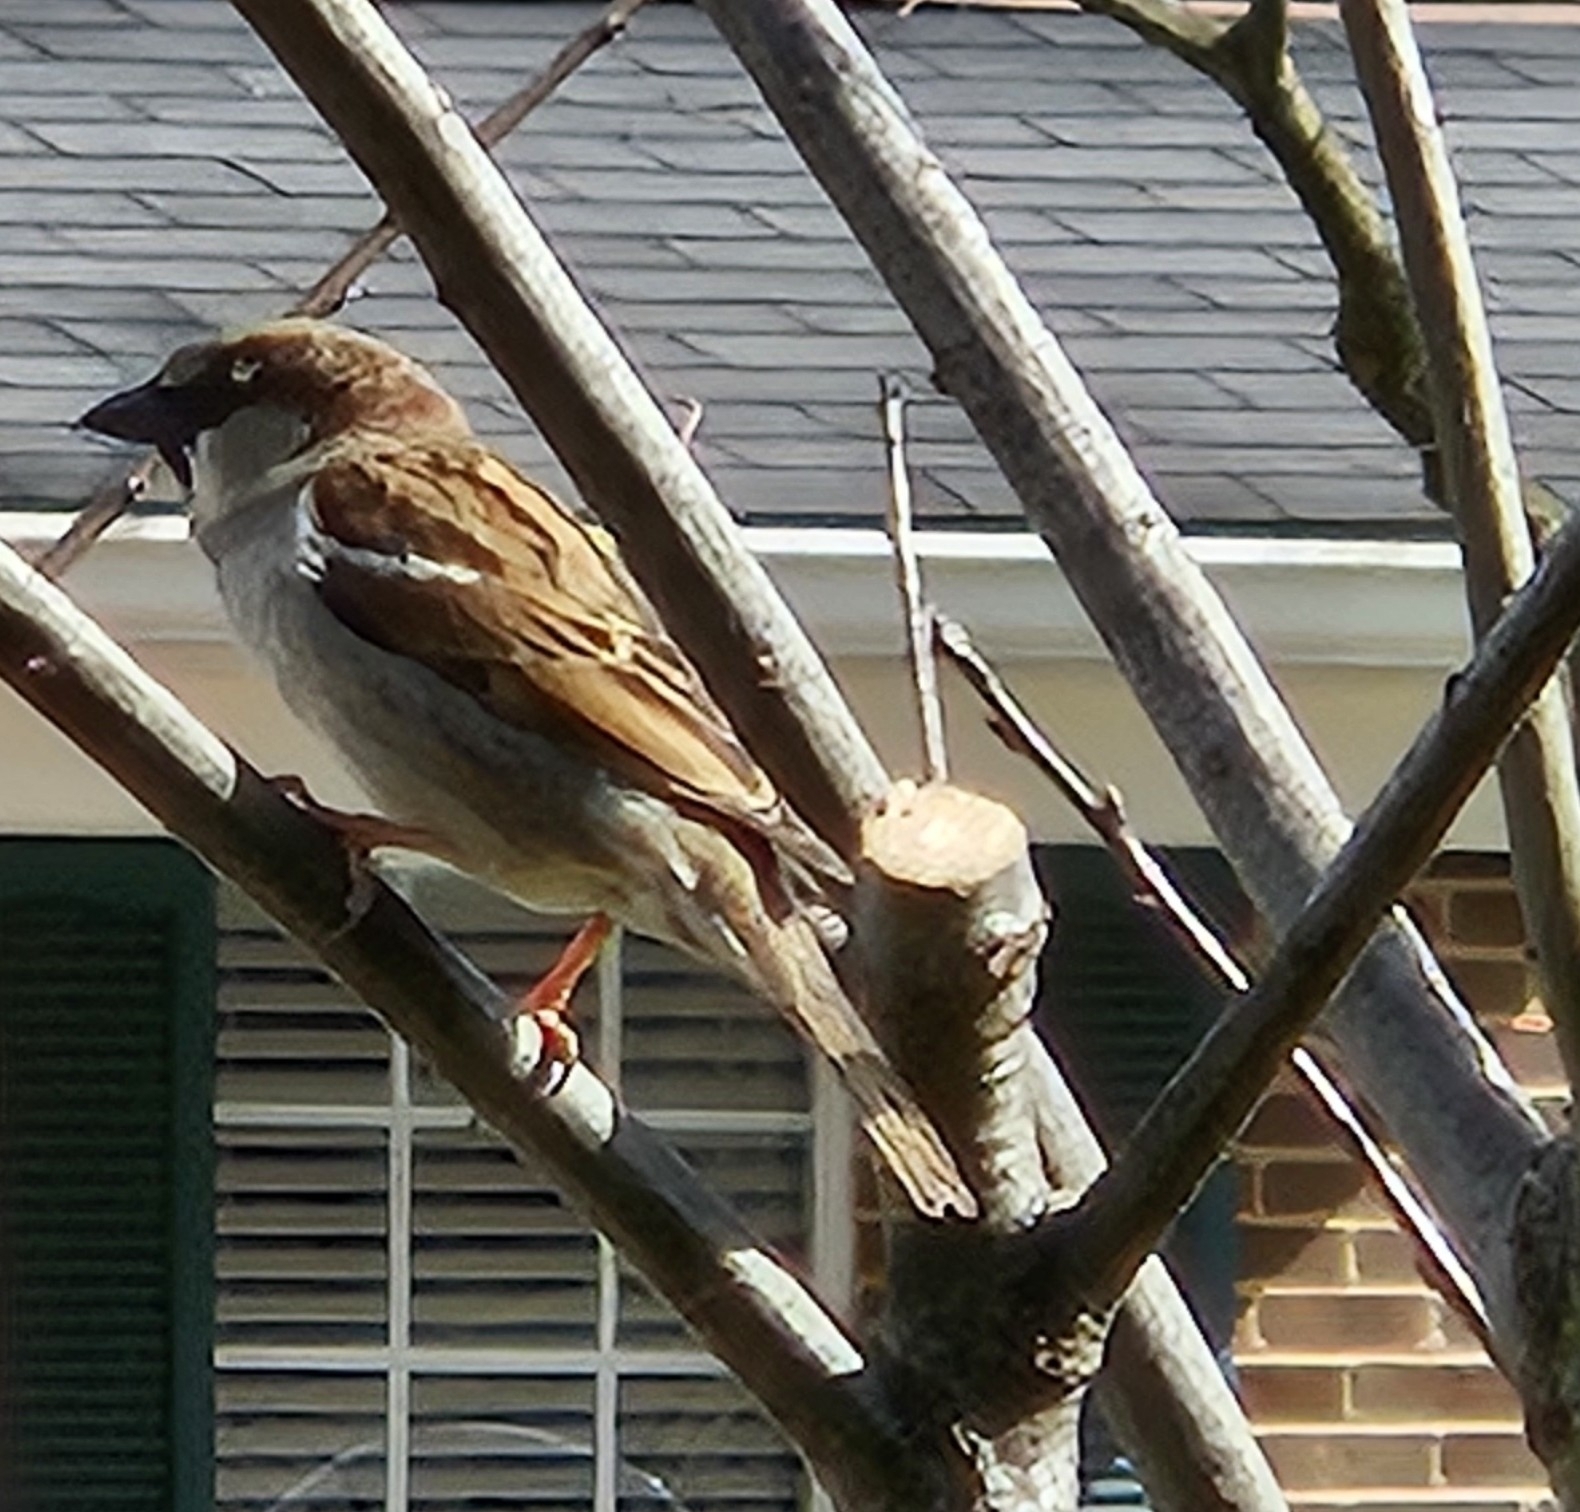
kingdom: Animalia
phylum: Chordata
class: Aves
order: Passeriformes
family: Passeridae
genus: Passer
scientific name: Passer domesticus
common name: House sparrow
